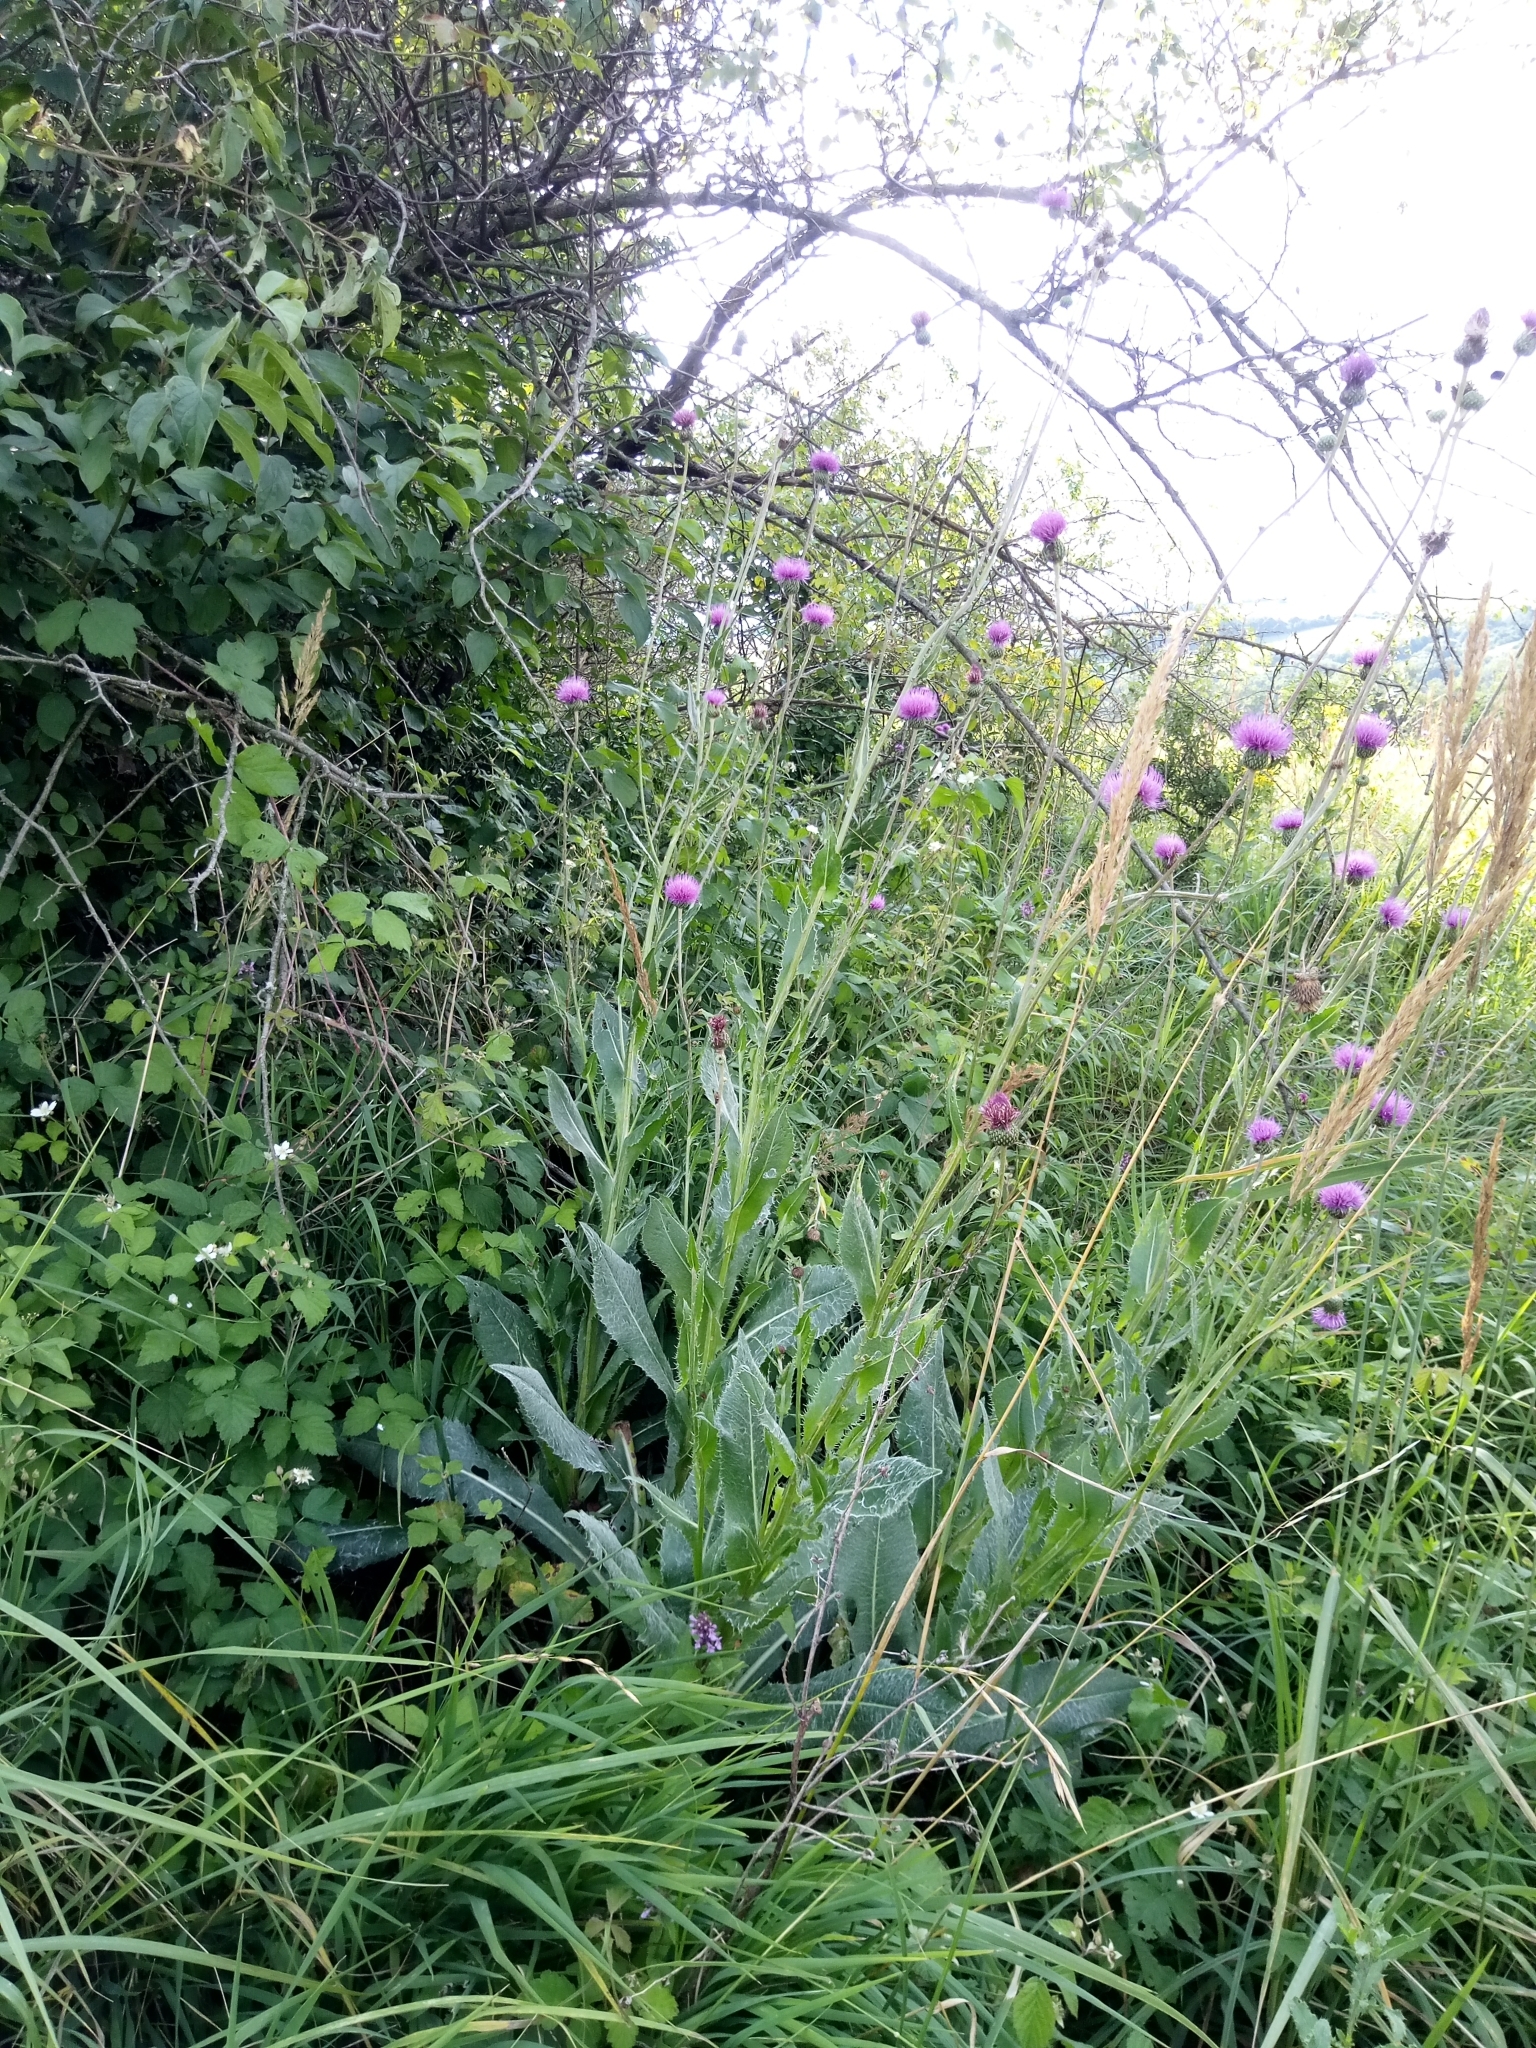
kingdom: Plantae
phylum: Tracheophyta
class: Magnoliopsida
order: Asterales
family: Asteraceae
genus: Cirsium
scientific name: Cirsium canum
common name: Queen anne's thistle
